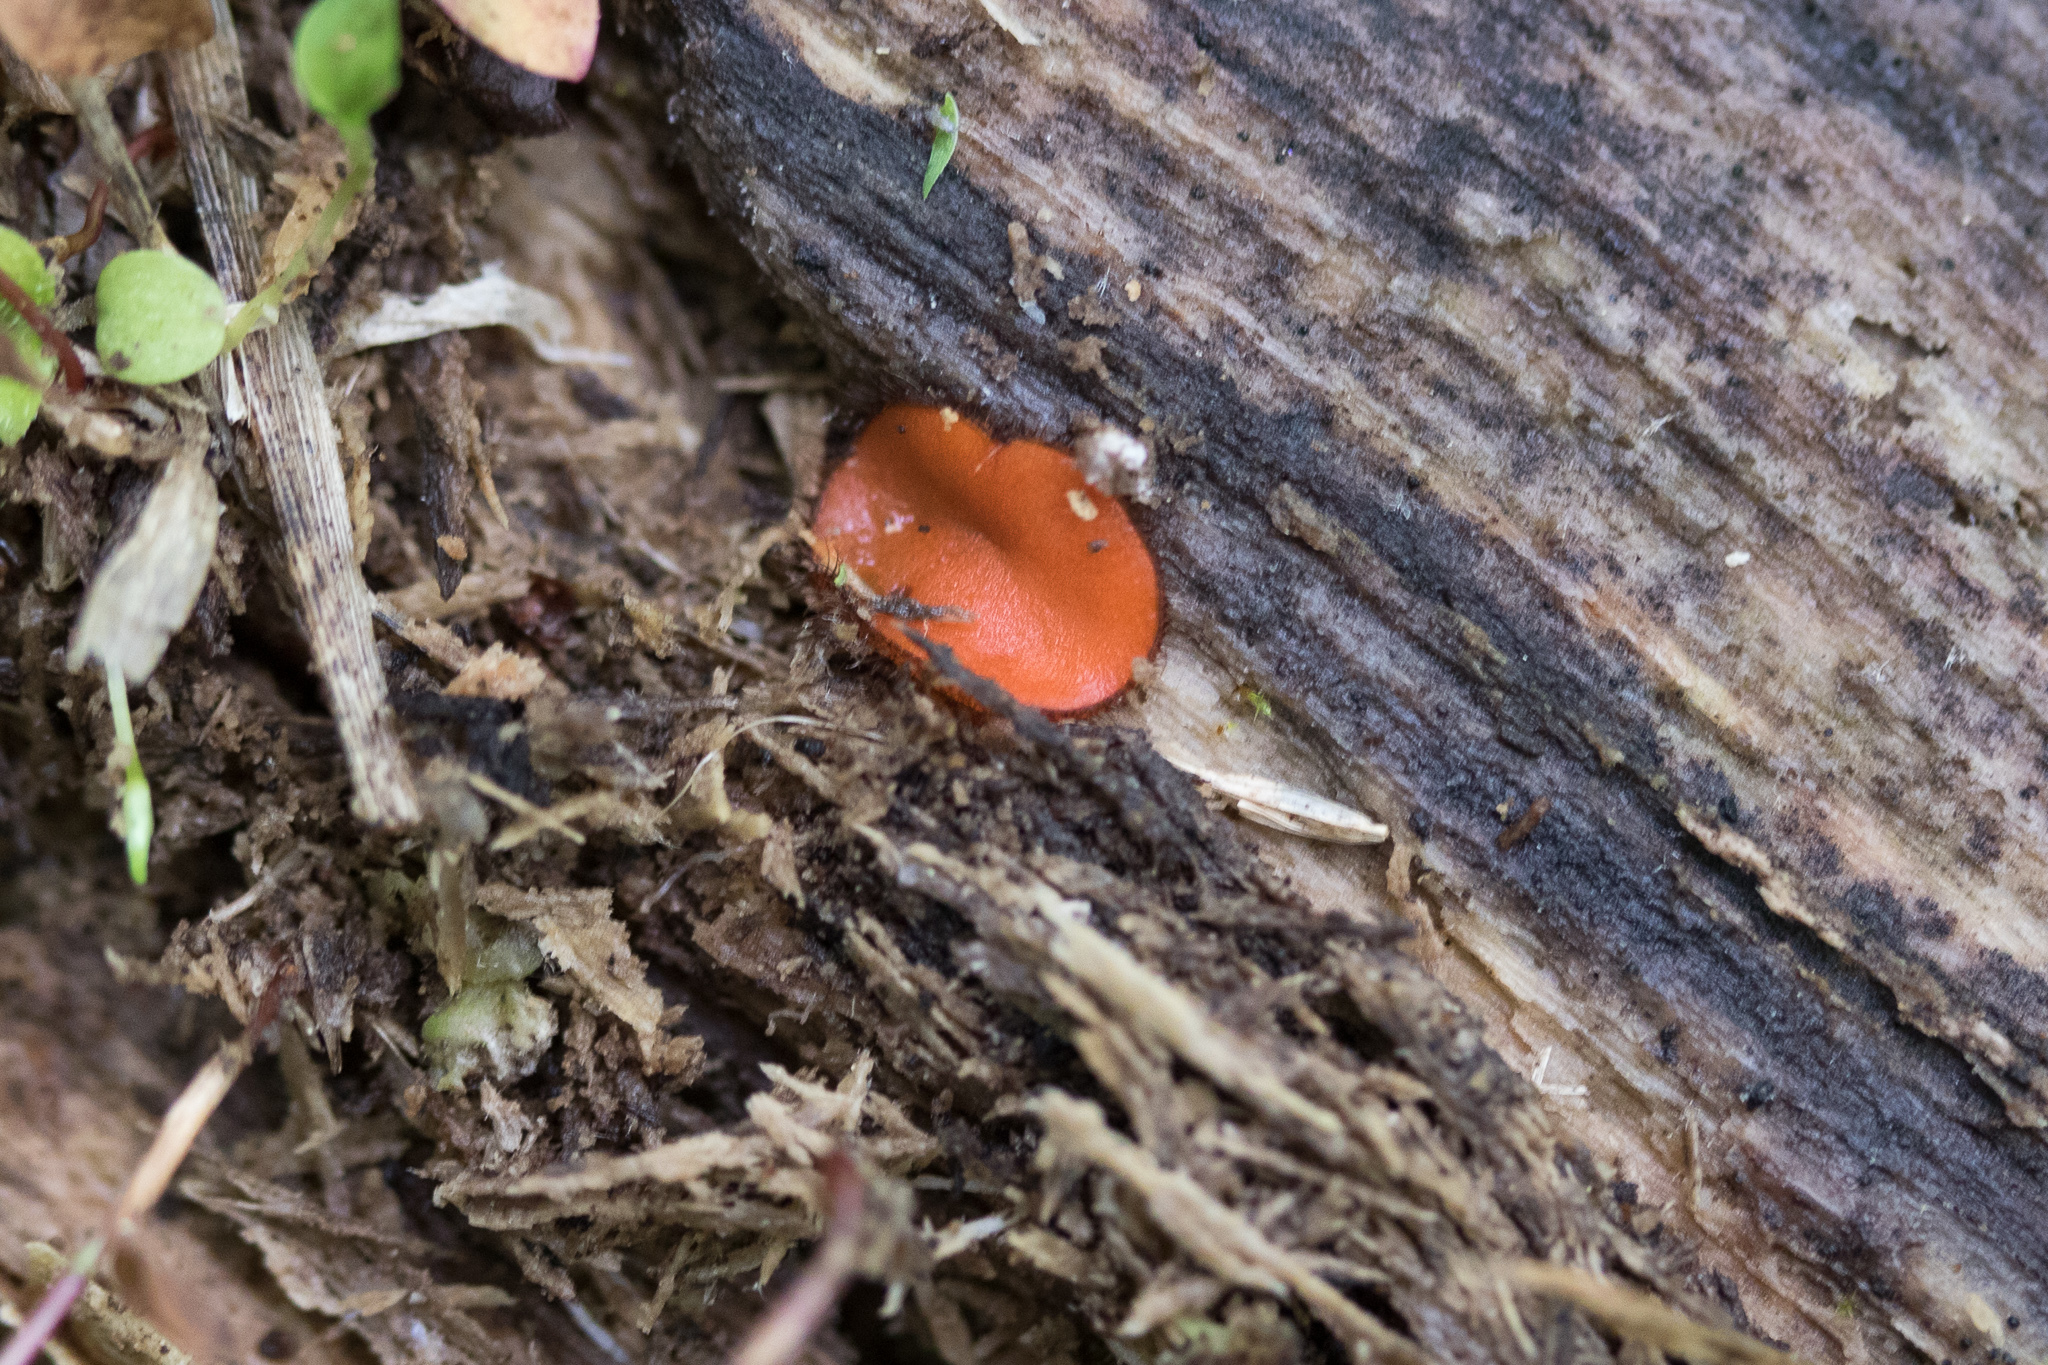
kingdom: Fungi
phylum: Ascomycota
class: Pezizomycetes
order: Pezizales
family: Pyronemataceae
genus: Scutellinia
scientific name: Scutellinia scutellata
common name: Common eyelash
